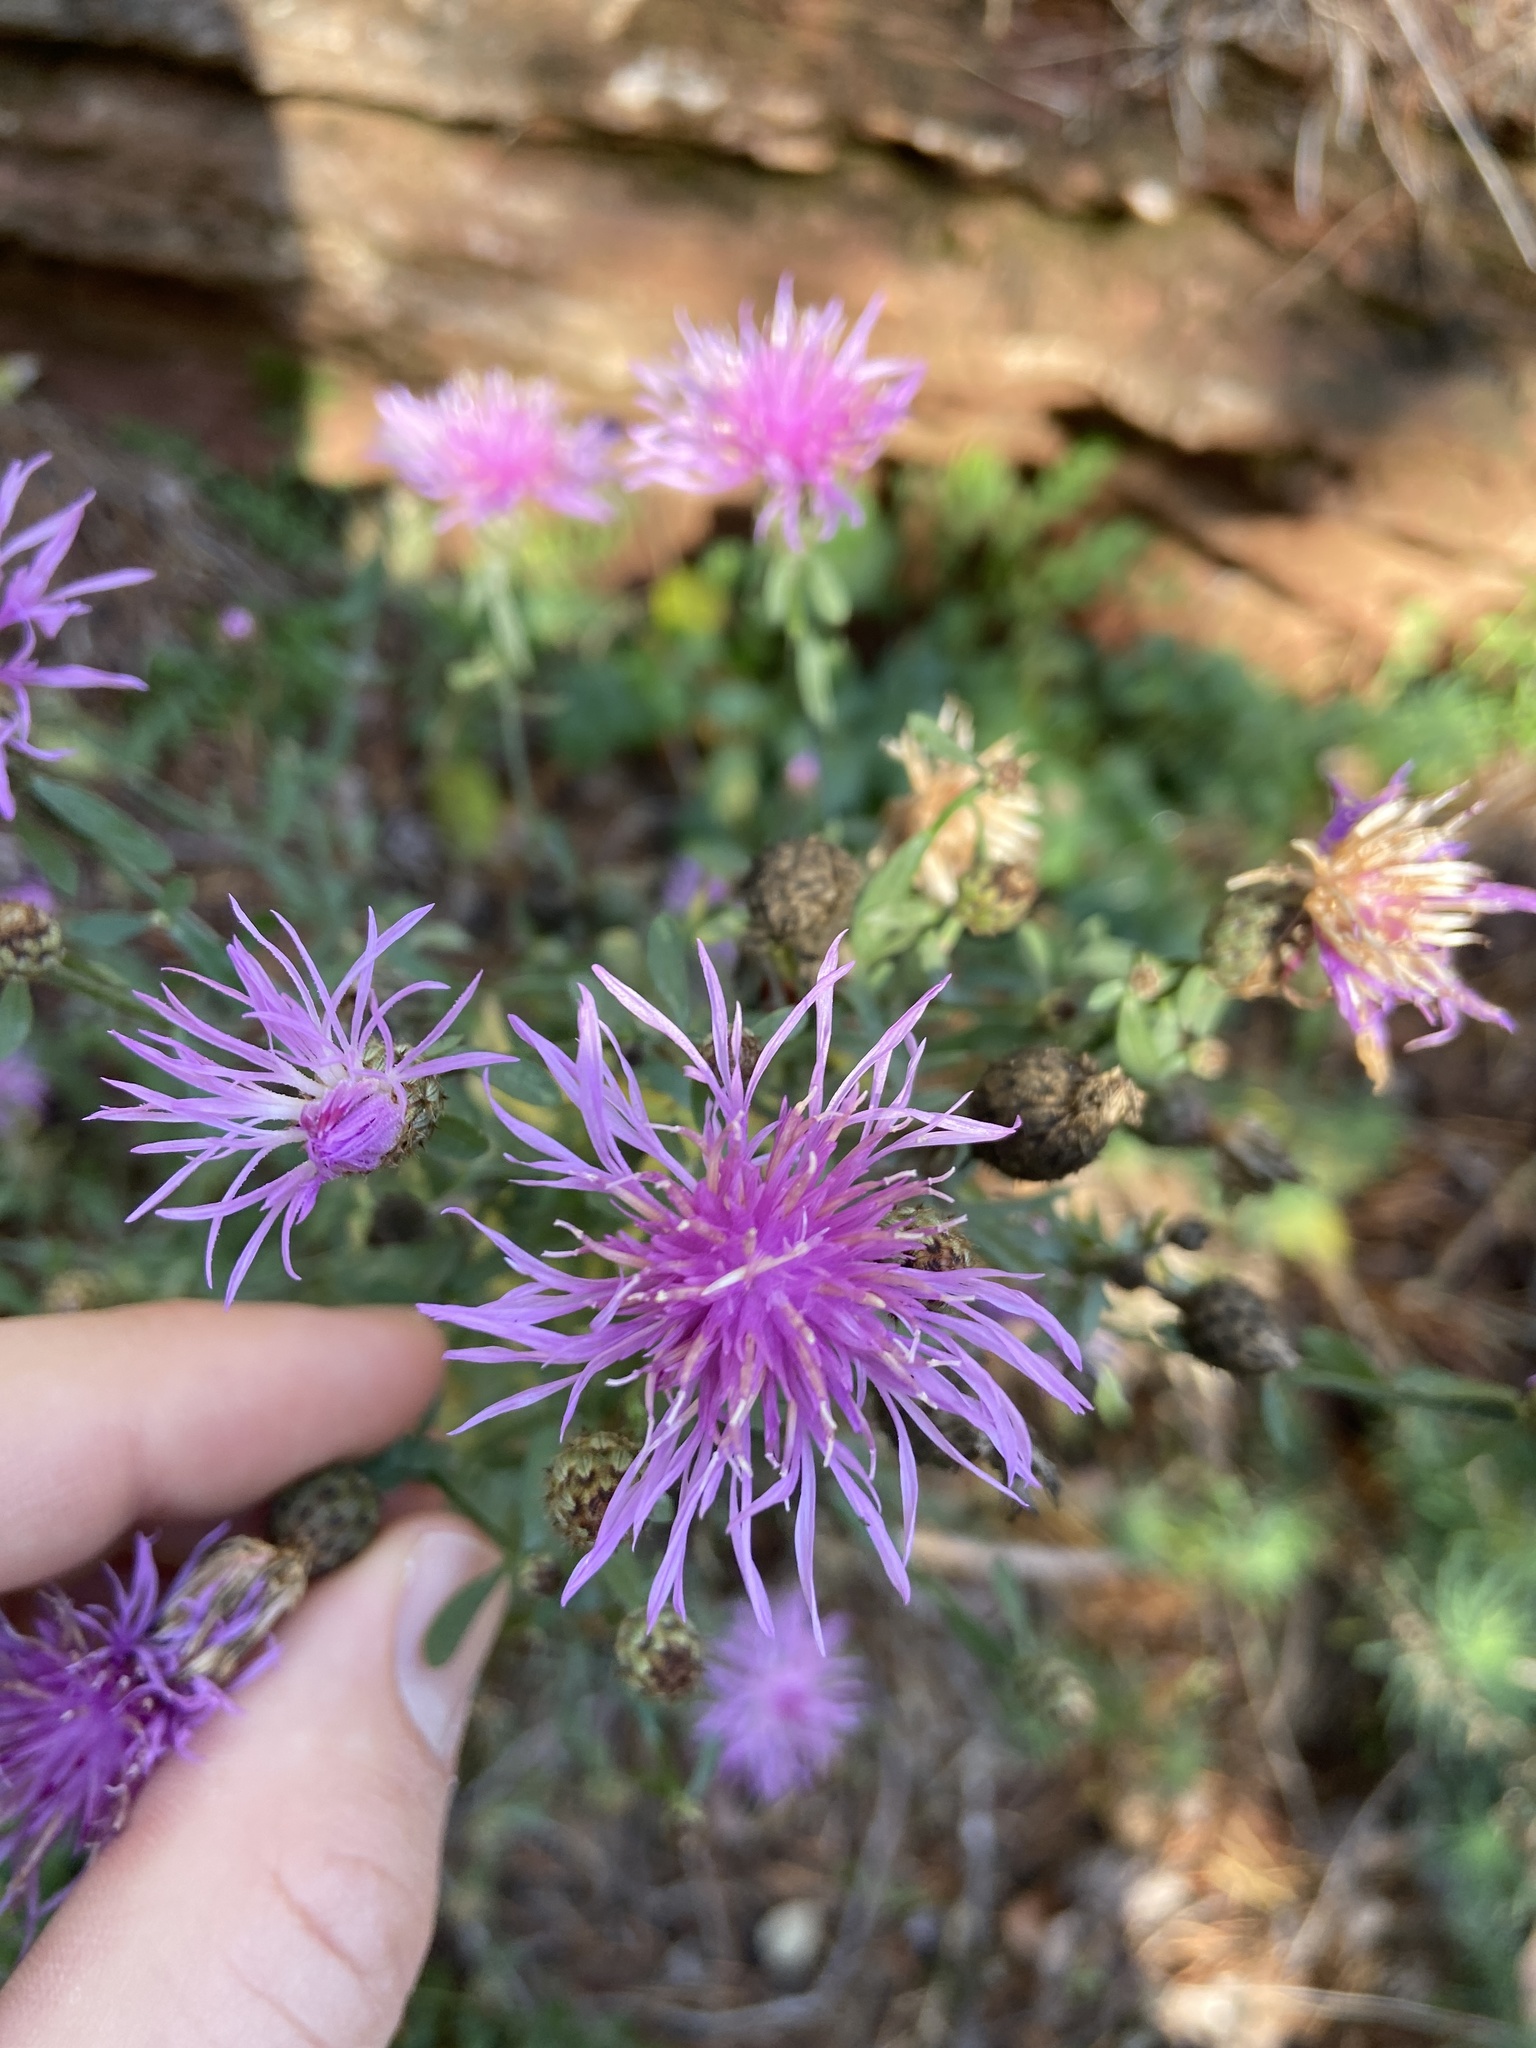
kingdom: Plantae
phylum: Tracheophyta
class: Magnoliopsida
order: Asterales
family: Asteraceae
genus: Centaurea
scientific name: Centaurea stoebe
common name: Spotted knapweed
